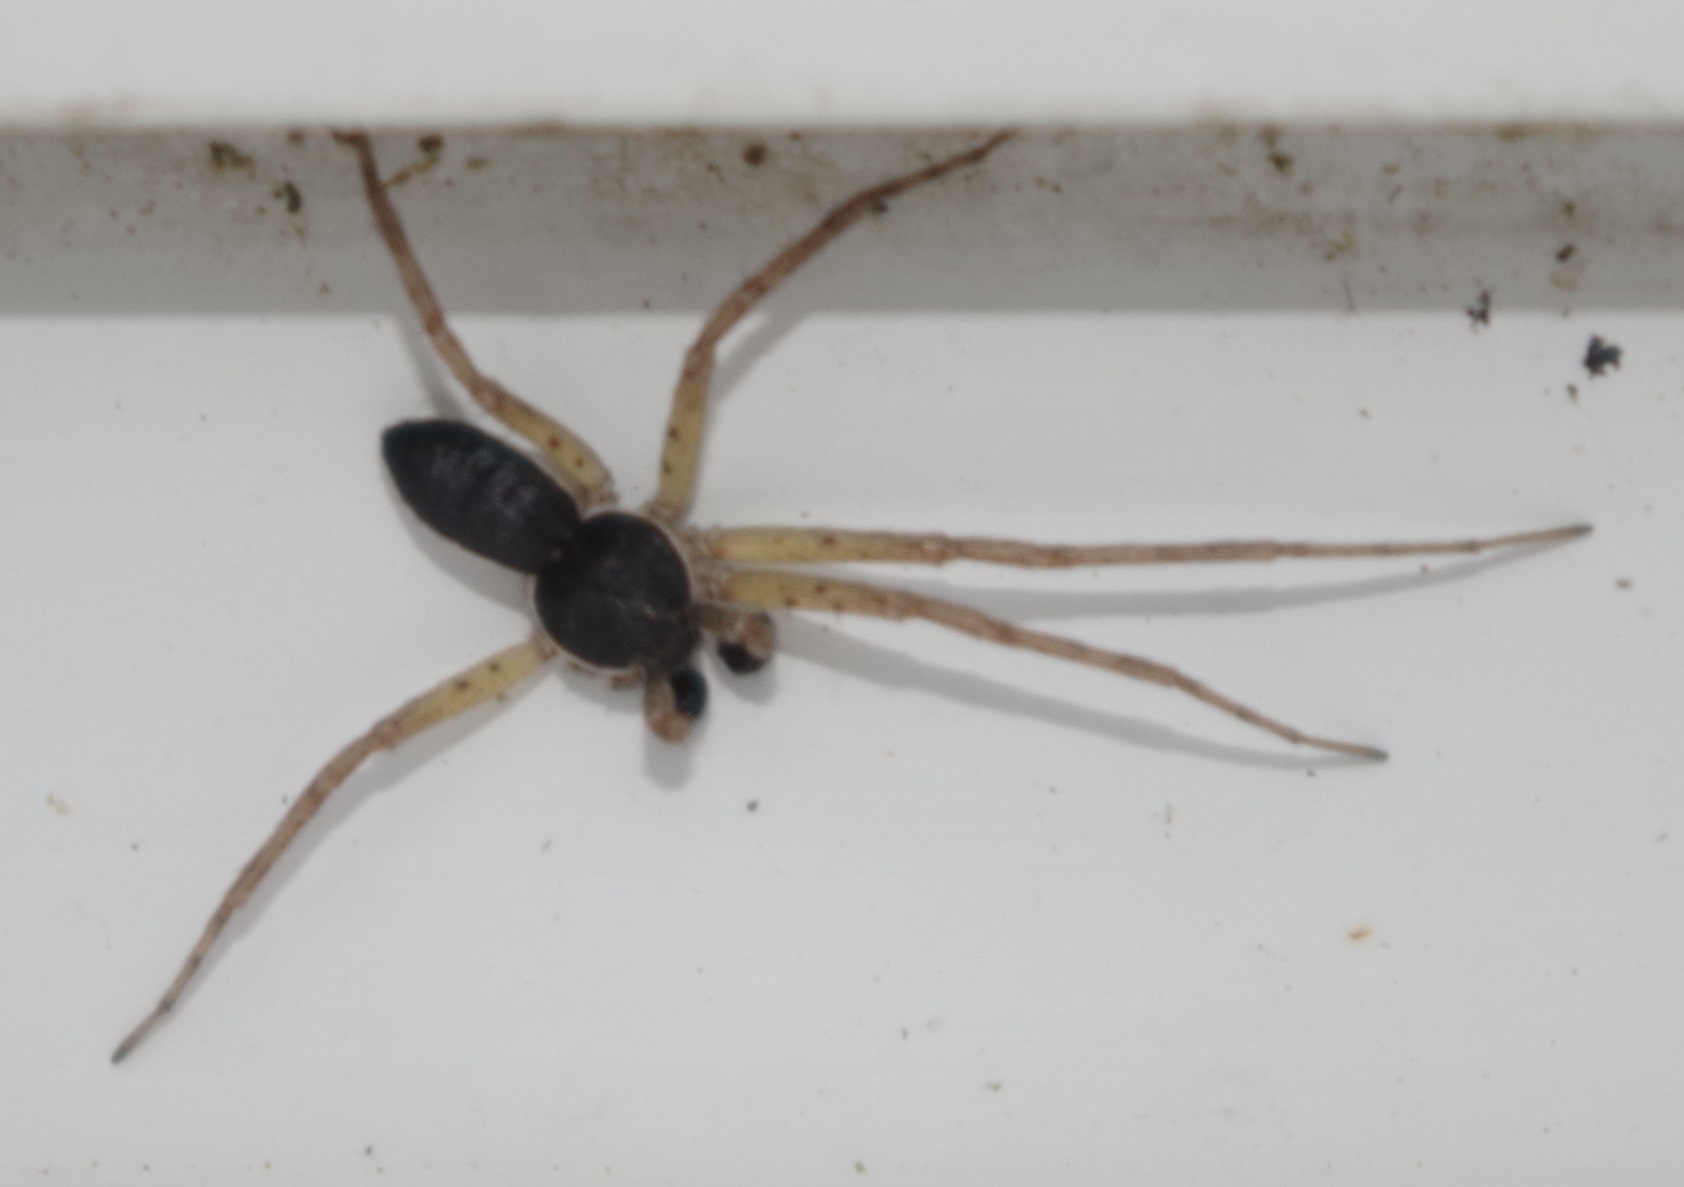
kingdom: Animalia
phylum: Arthropoda
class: Arachnida
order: Araneae
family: Philodromidae
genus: Philodromus
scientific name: Philodromus dispar
